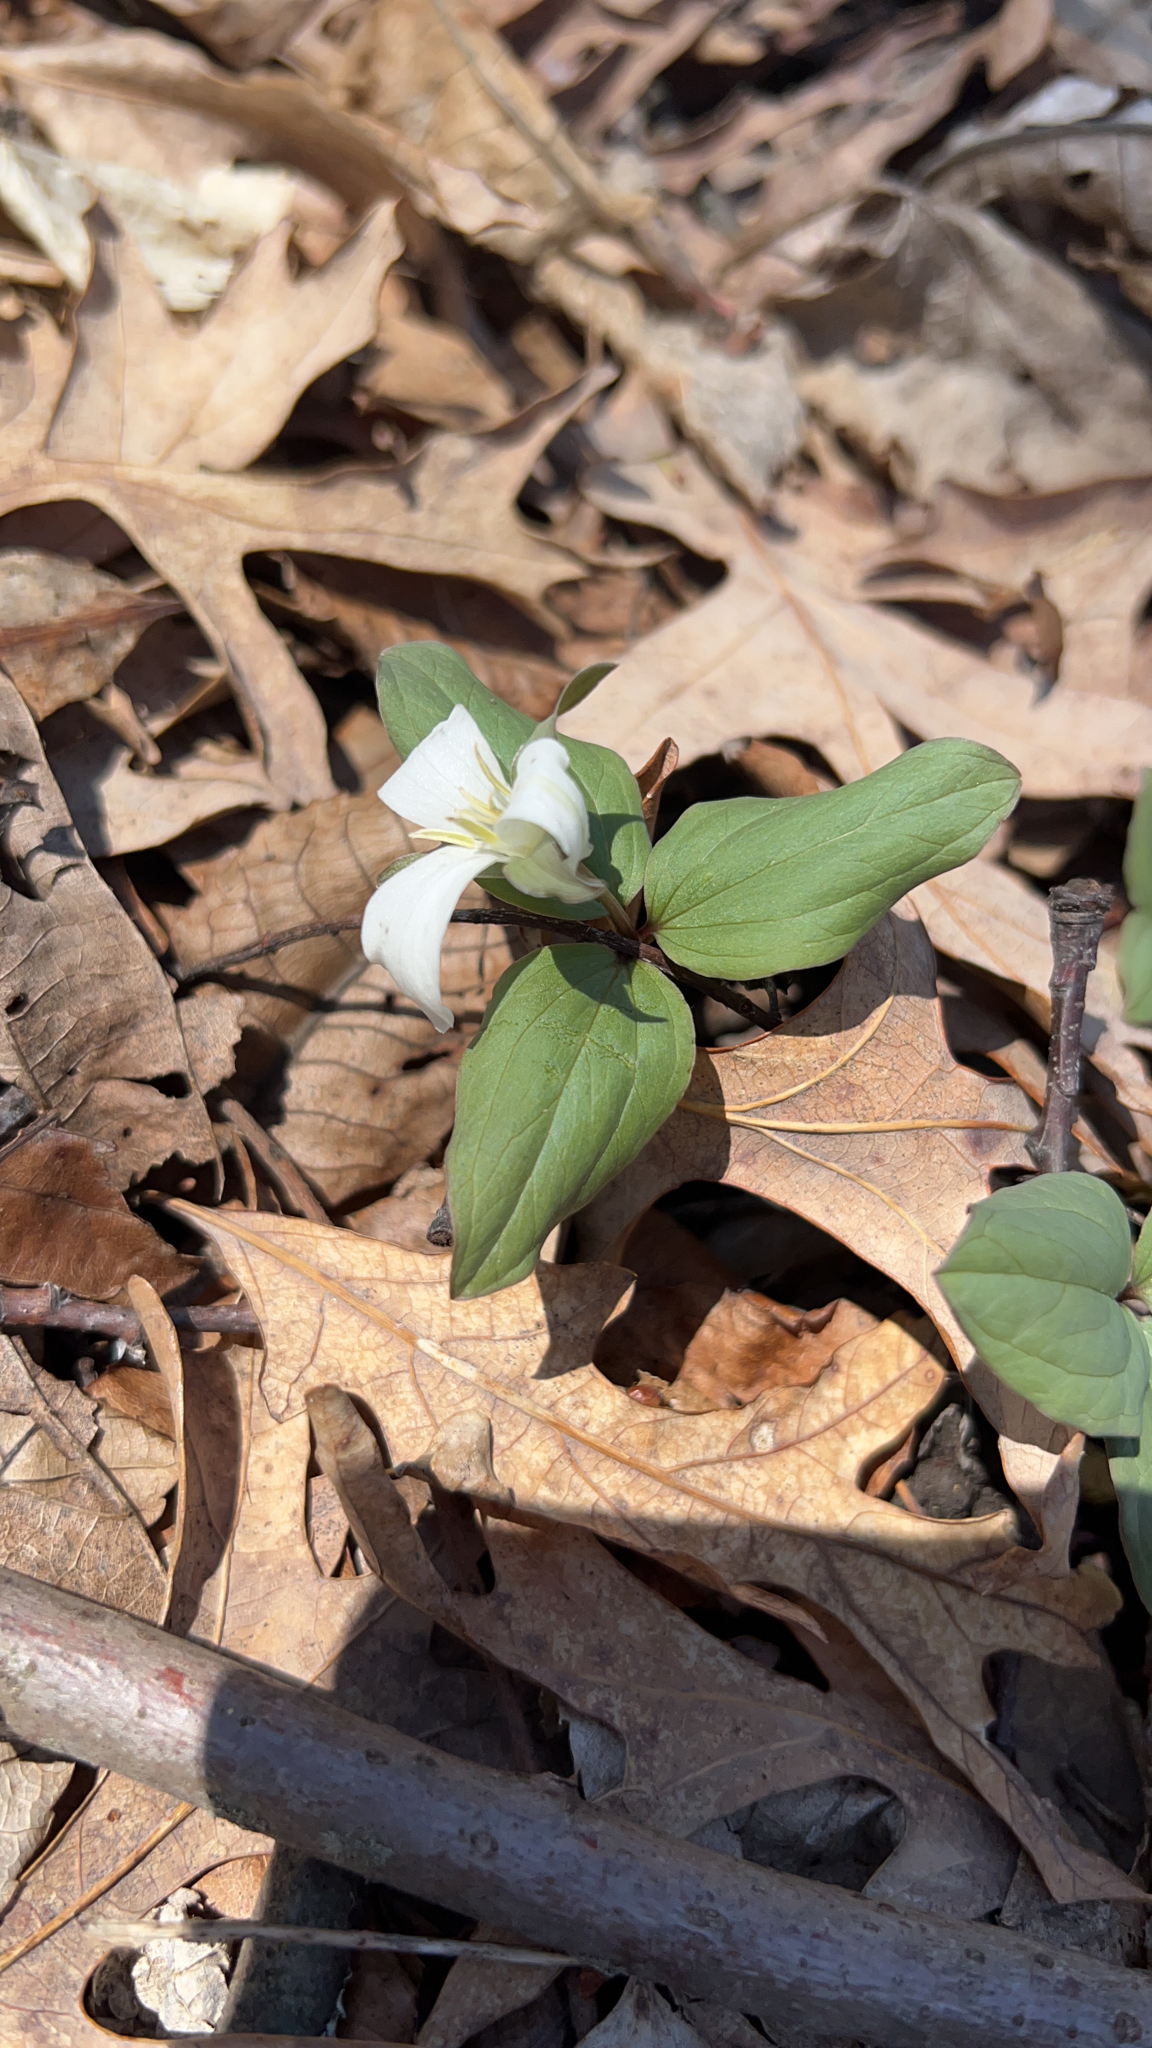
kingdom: Plantae
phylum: Tracheophyta
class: Liliopsida
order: Liliales
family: Melanthiaceae
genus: Trillium
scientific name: Trillium nivale
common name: Dwarf white trillium
